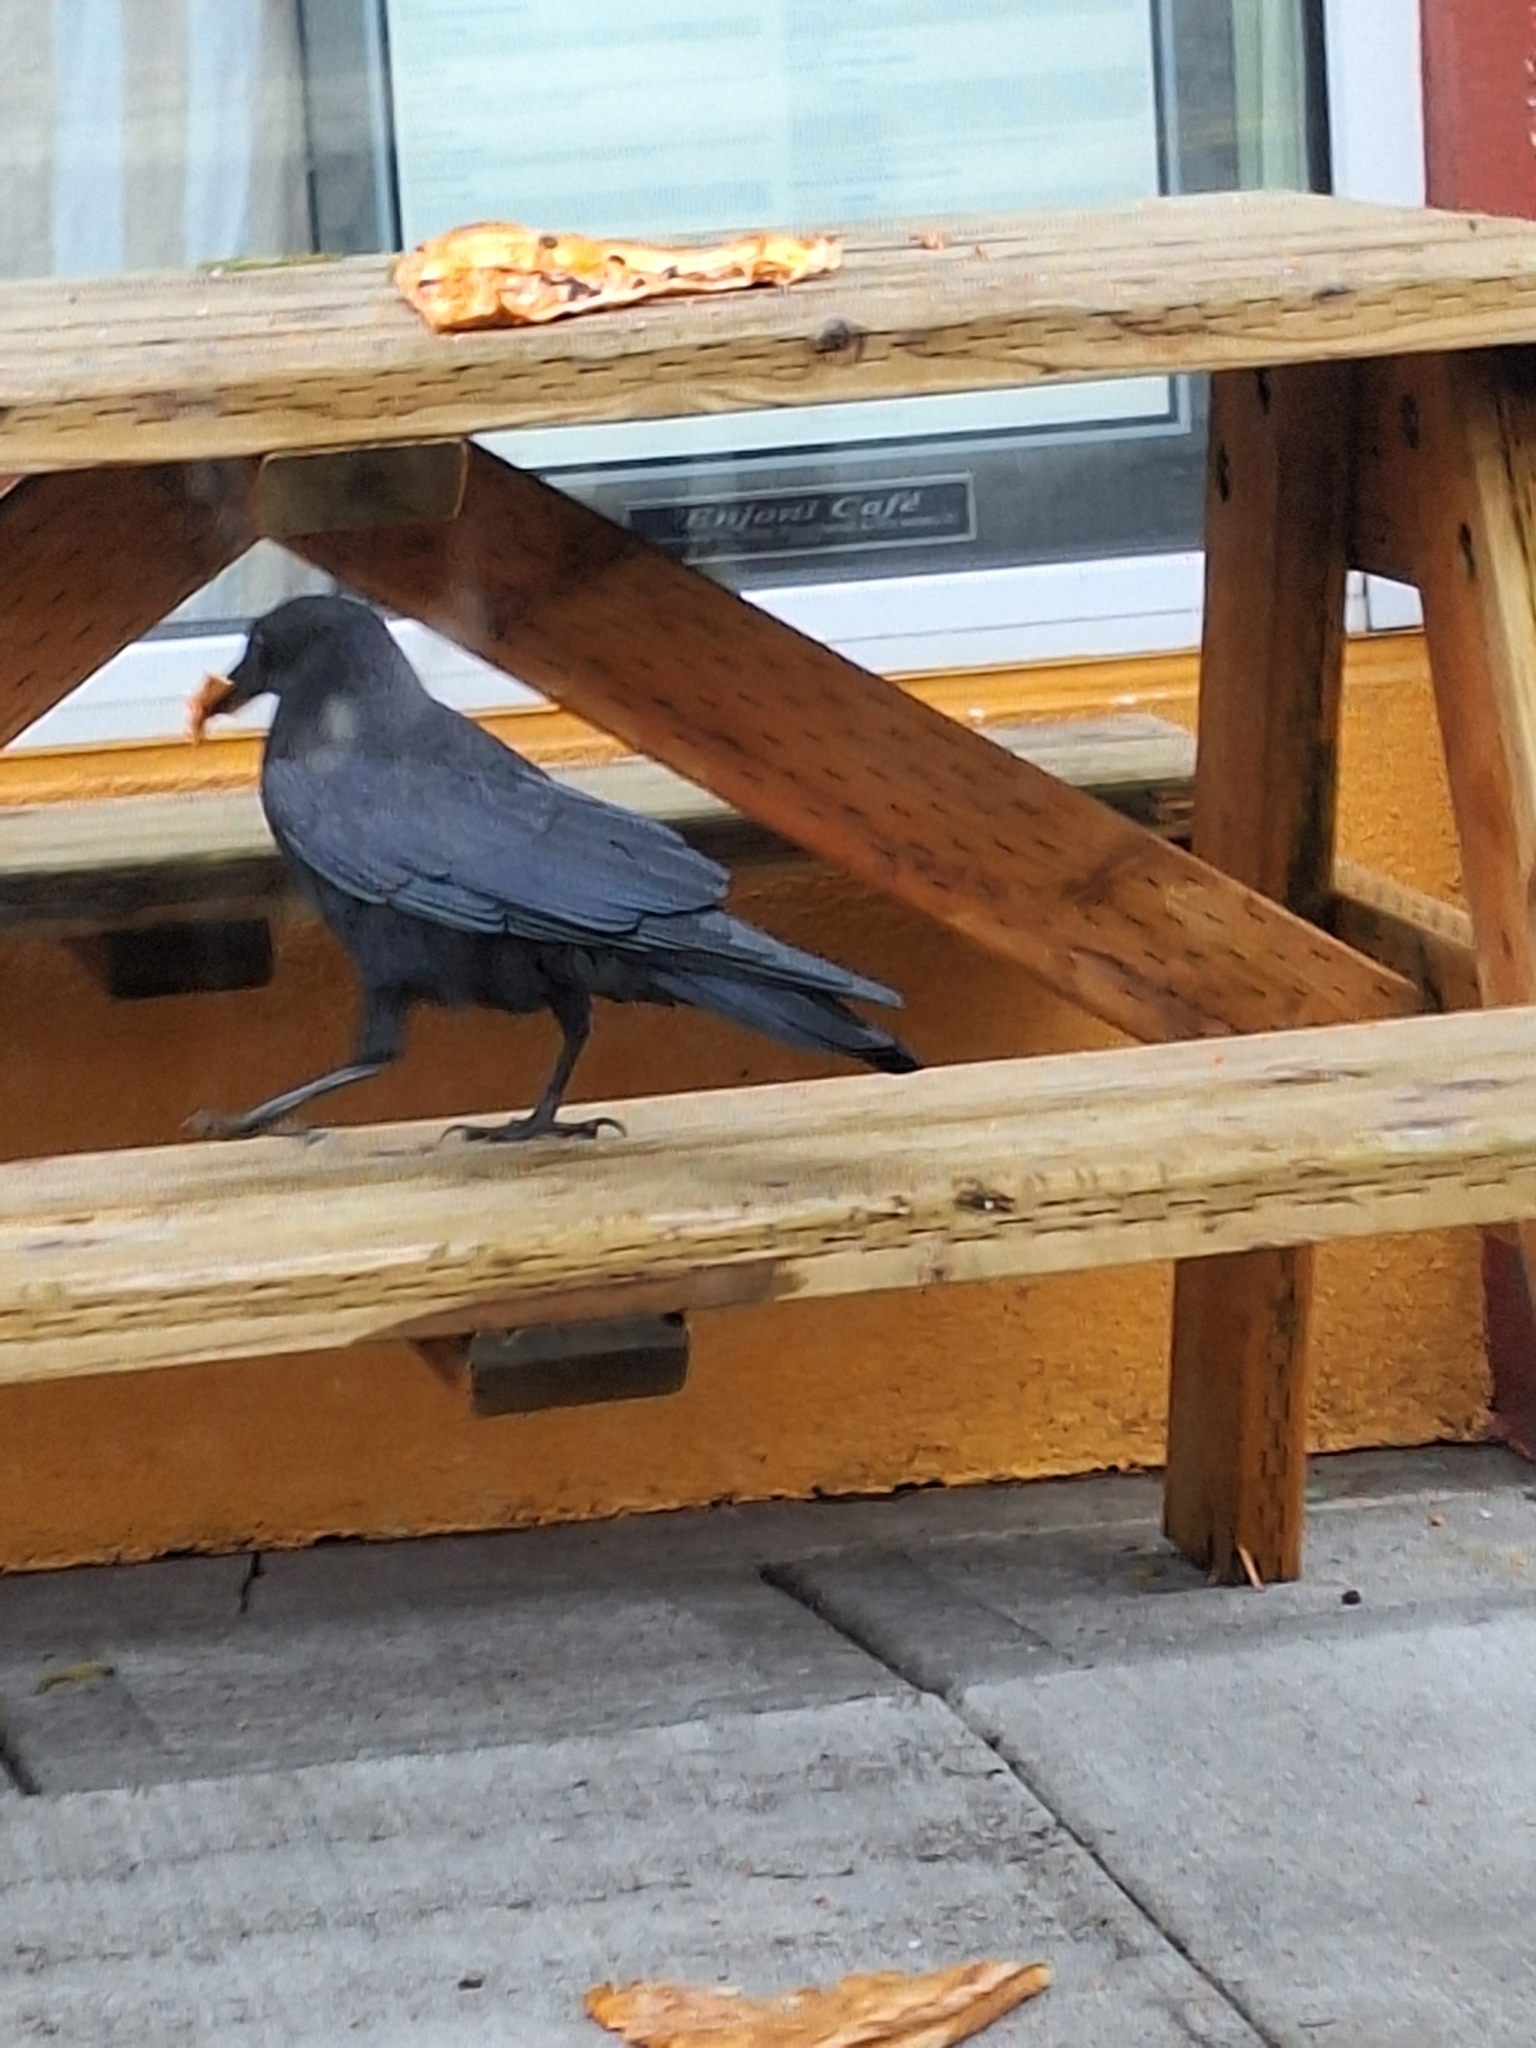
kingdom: Animalia
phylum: Chordata
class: Aves
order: Passeriformes
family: Corvidae
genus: Corvus
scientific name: Corvus brachyrhynchos
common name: American crow
